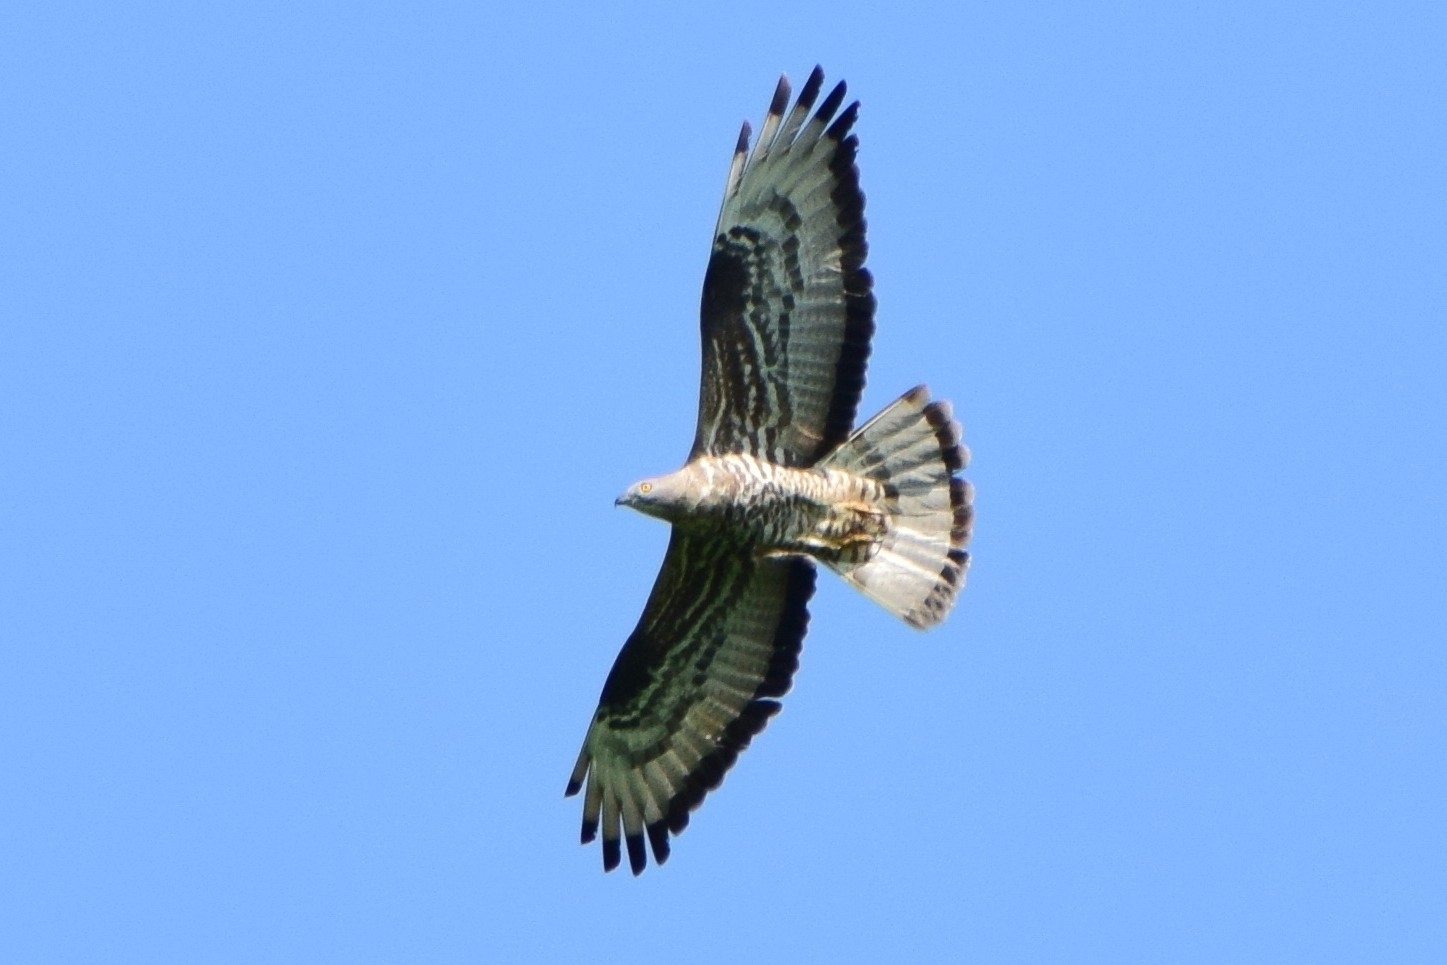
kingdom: Animalia
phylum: Chordata
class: Aves
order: Accipitriformes
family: Accipitridae
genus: Pernis
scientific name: Pernis apivorus
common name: European honey buzzard
